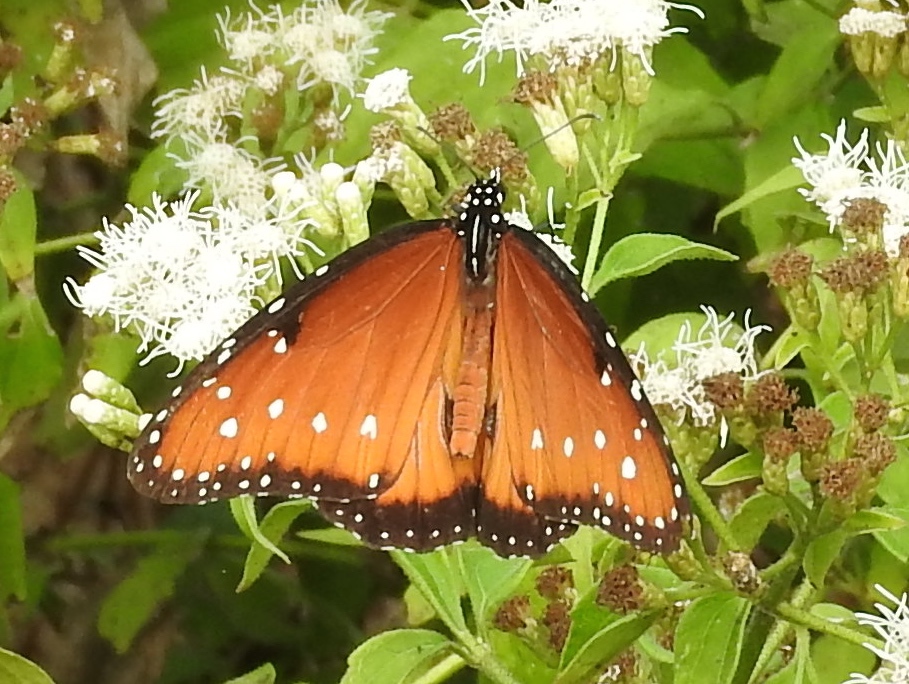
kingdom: Animalia
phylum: Arthropoda
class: Insecta
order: Lepidoptera
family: Nymphalidae
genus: Danaus
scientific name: Danaus gilippus
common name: Queen
